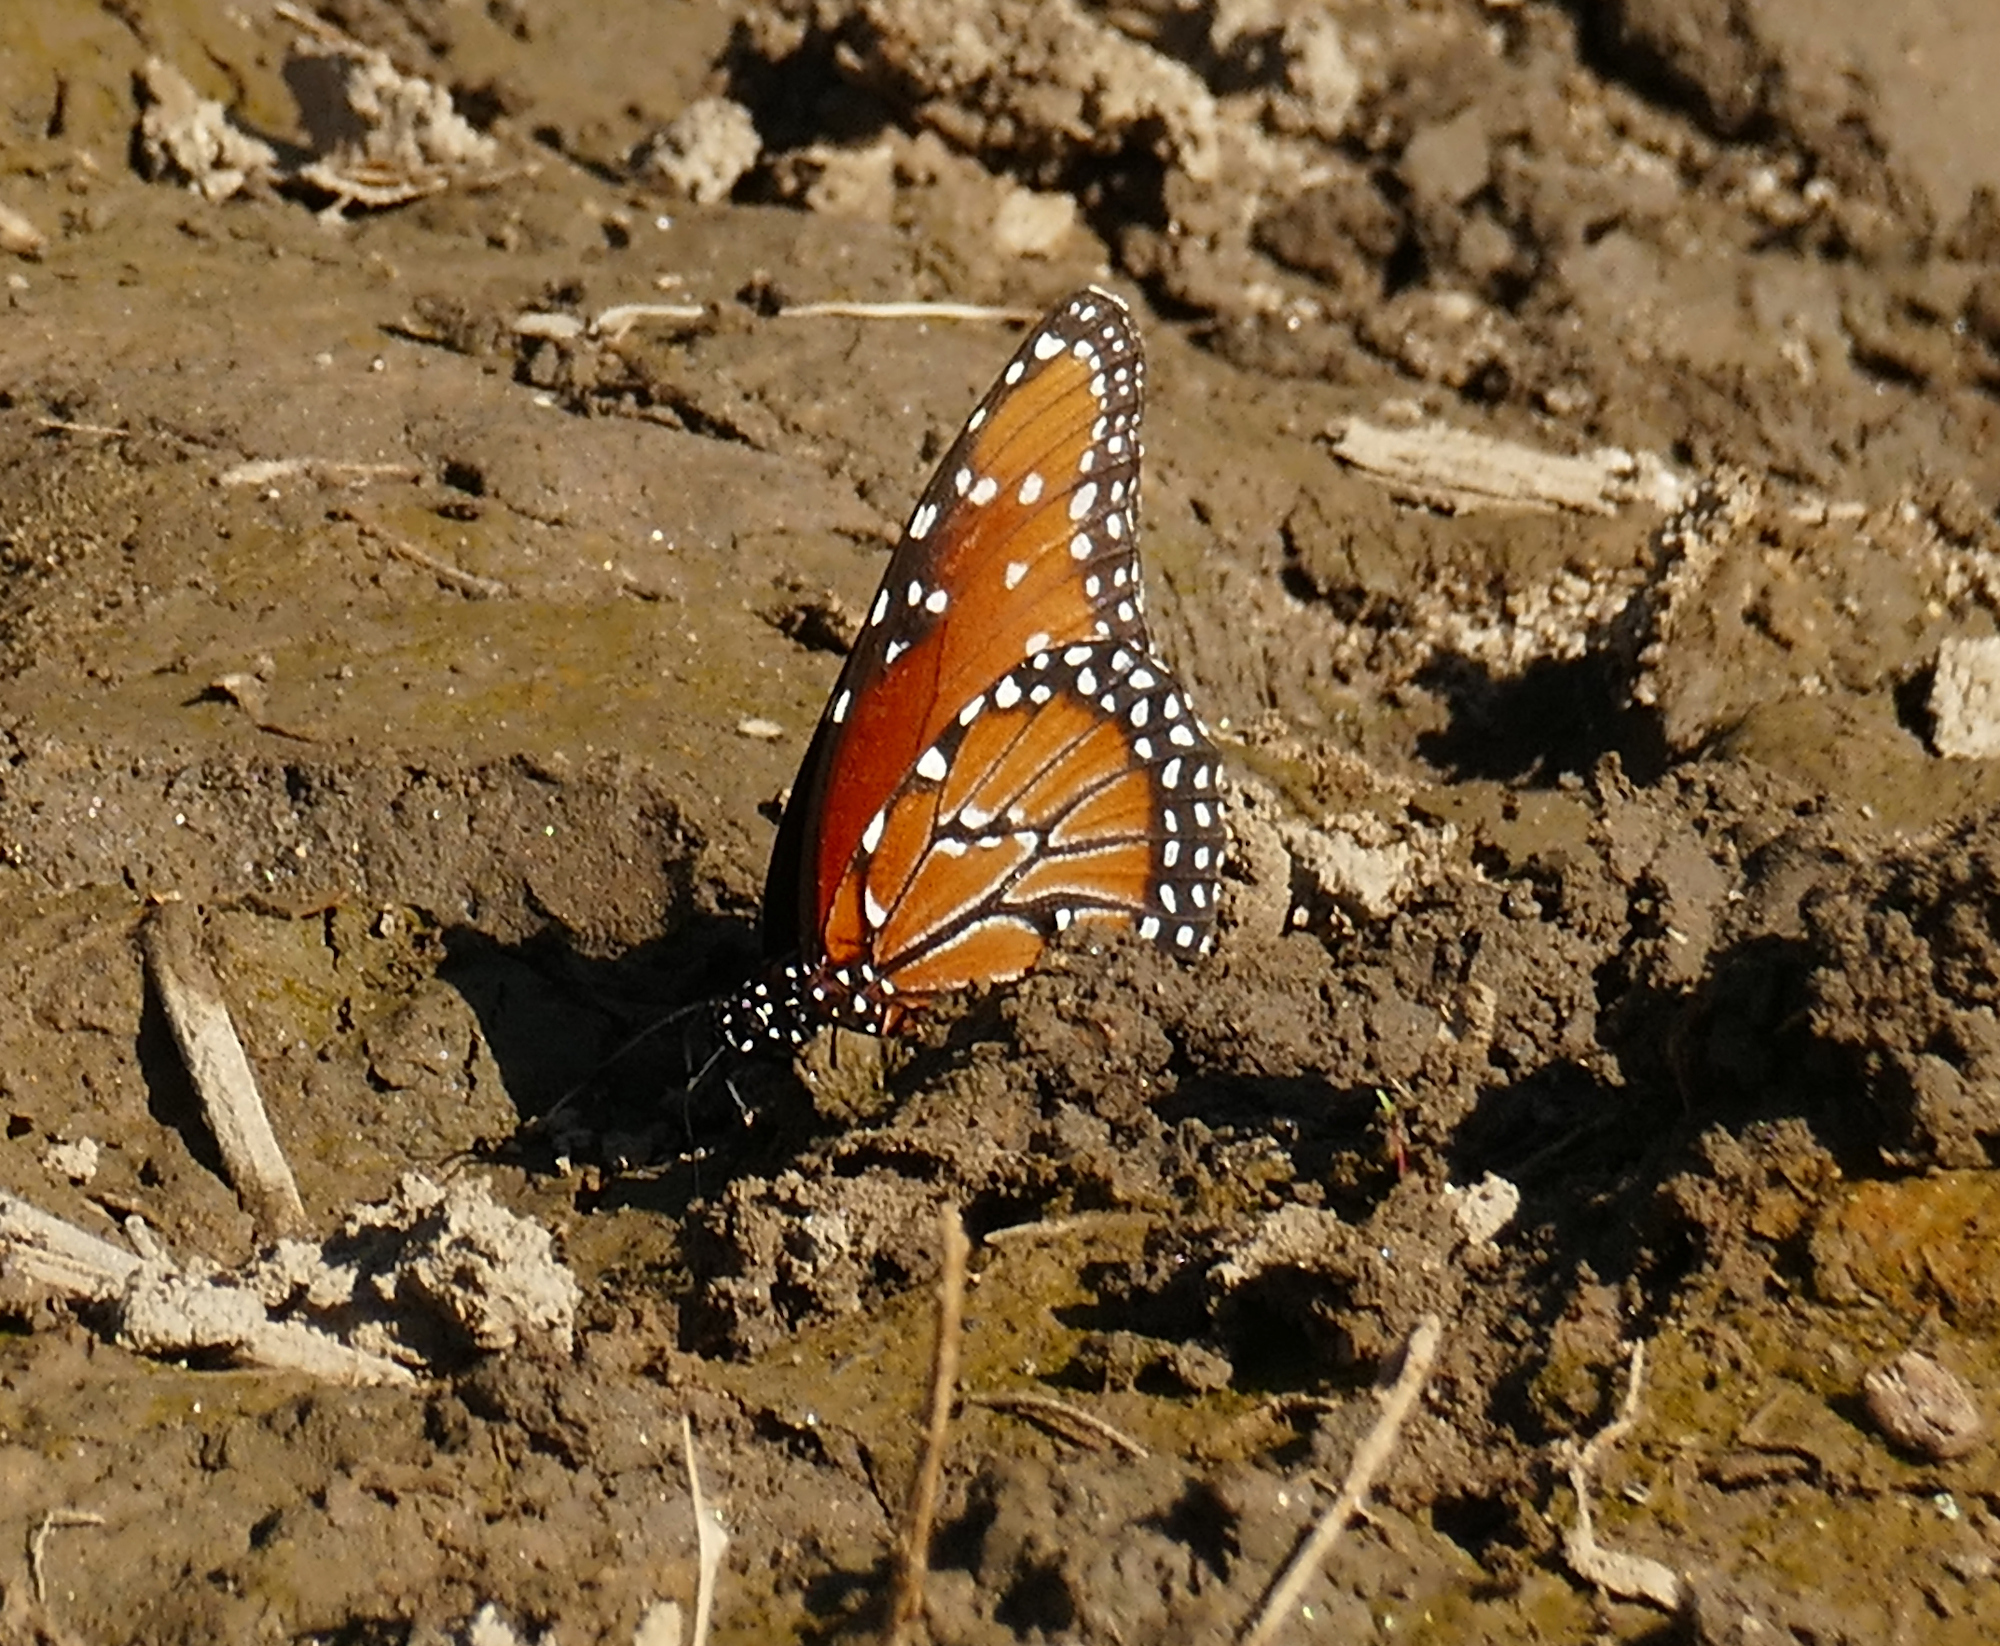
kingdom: Animalia
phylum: Arthropoda
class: Insecta
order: Lepidoptera
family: Nymphalidae
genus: Danaus
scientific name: Danaus gilippus
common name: Queen
